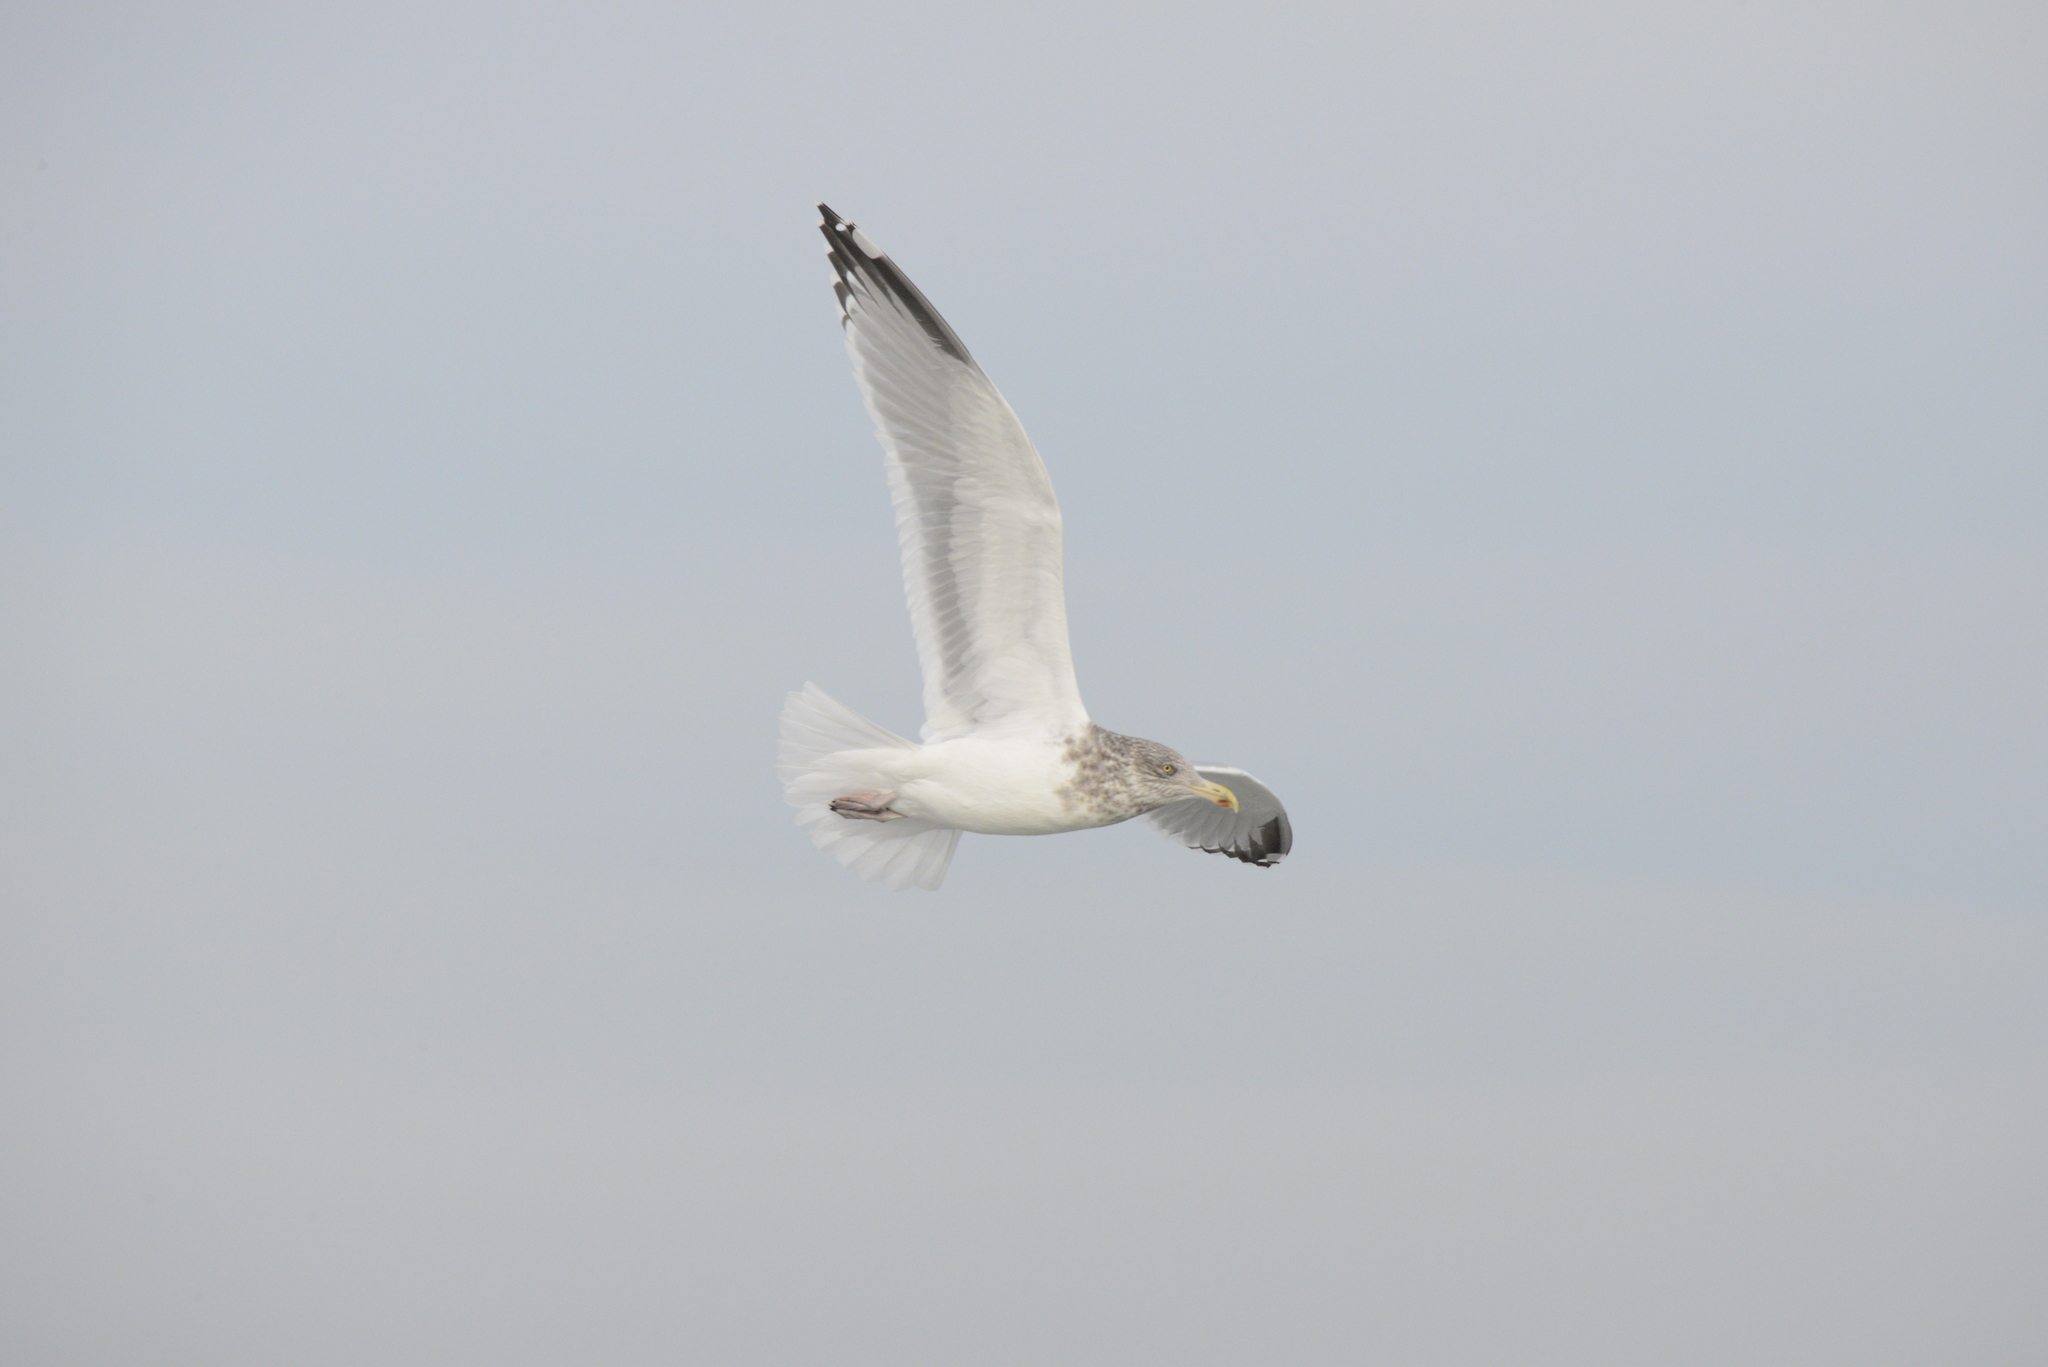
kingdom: Animalia
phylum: Chordata
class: Aves
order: Charadriiformes
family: Laridae
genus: Larus
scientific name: Larus argentatus
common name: Herring gull
